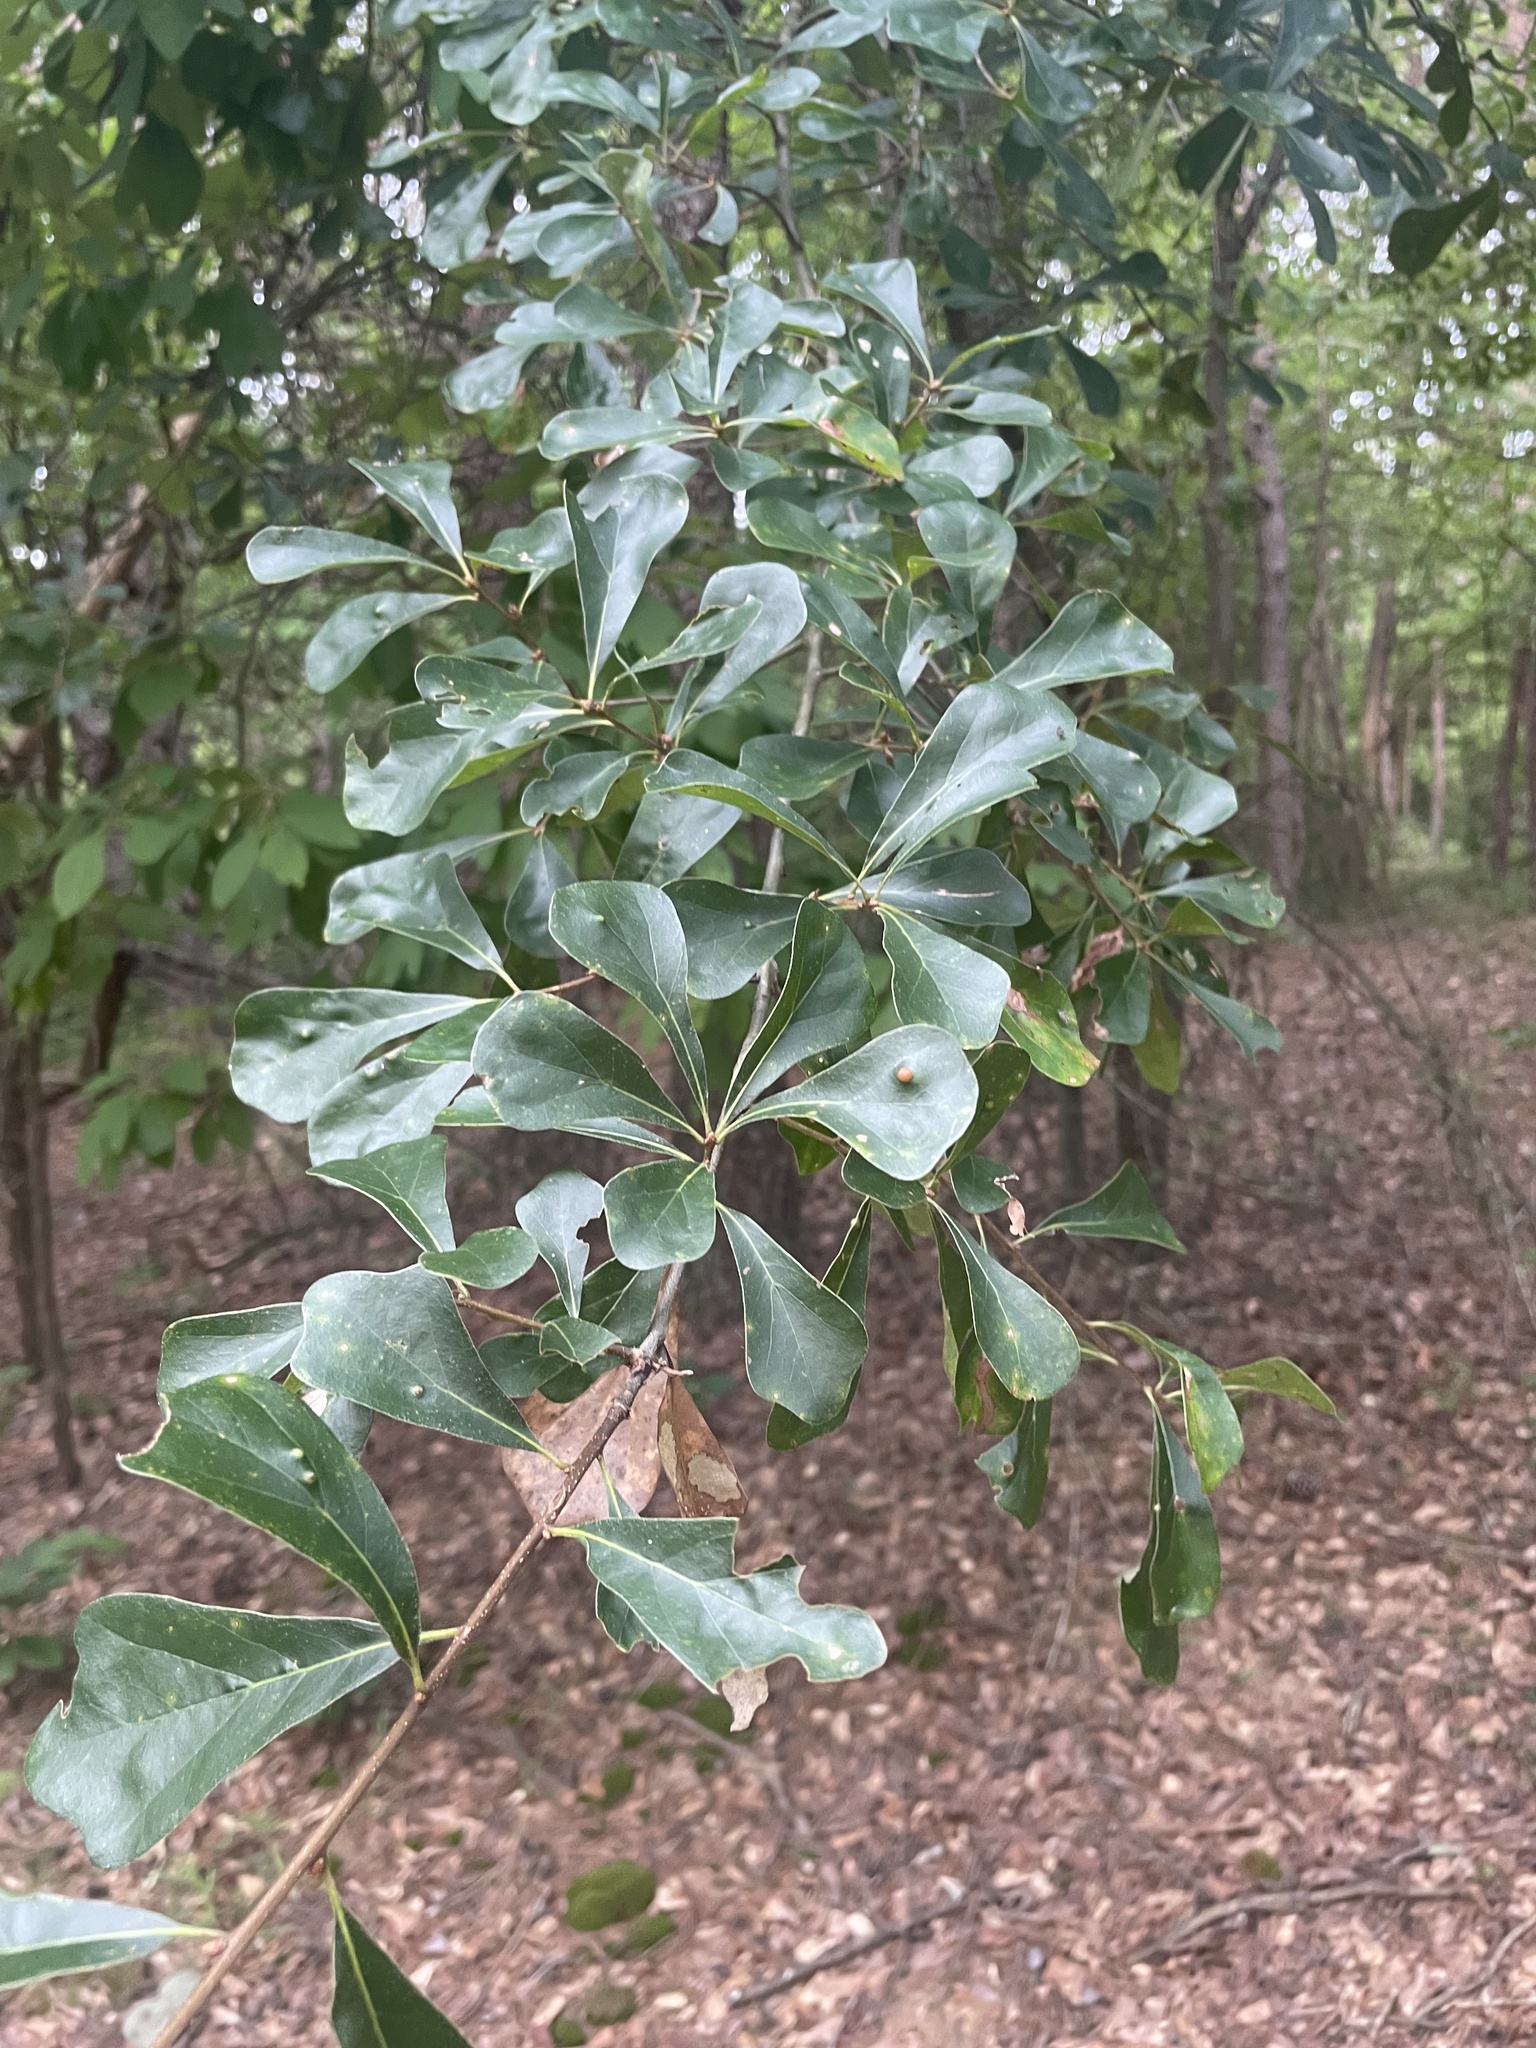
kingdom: Plantae
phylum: Tracheophyta
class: Magnoliopsida
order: Fagales
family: Fagaceae
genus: Quercus
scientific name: Quercus nigra
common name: Water oak
